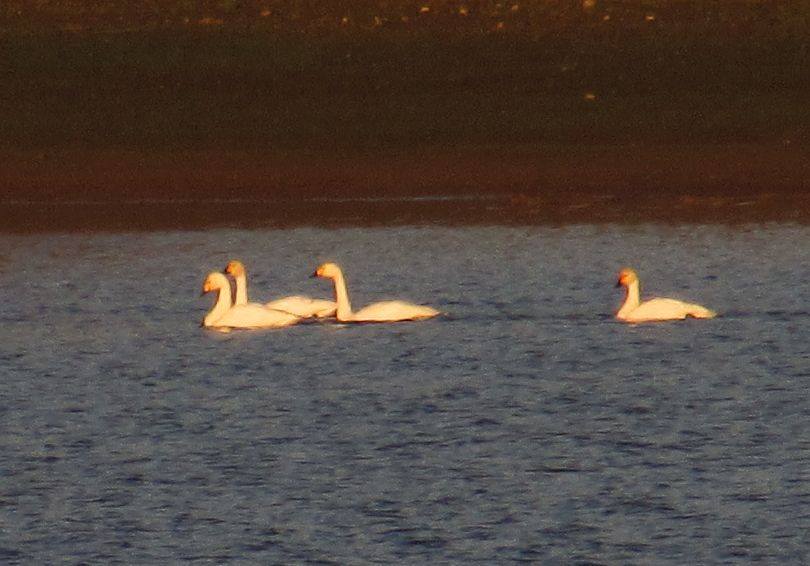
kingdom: Animalia
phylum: Chordata
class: Aves
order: Anseriformes
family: Anatidae
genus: Cygnus
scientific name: Cygnus columbianus
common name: Tundra swan
